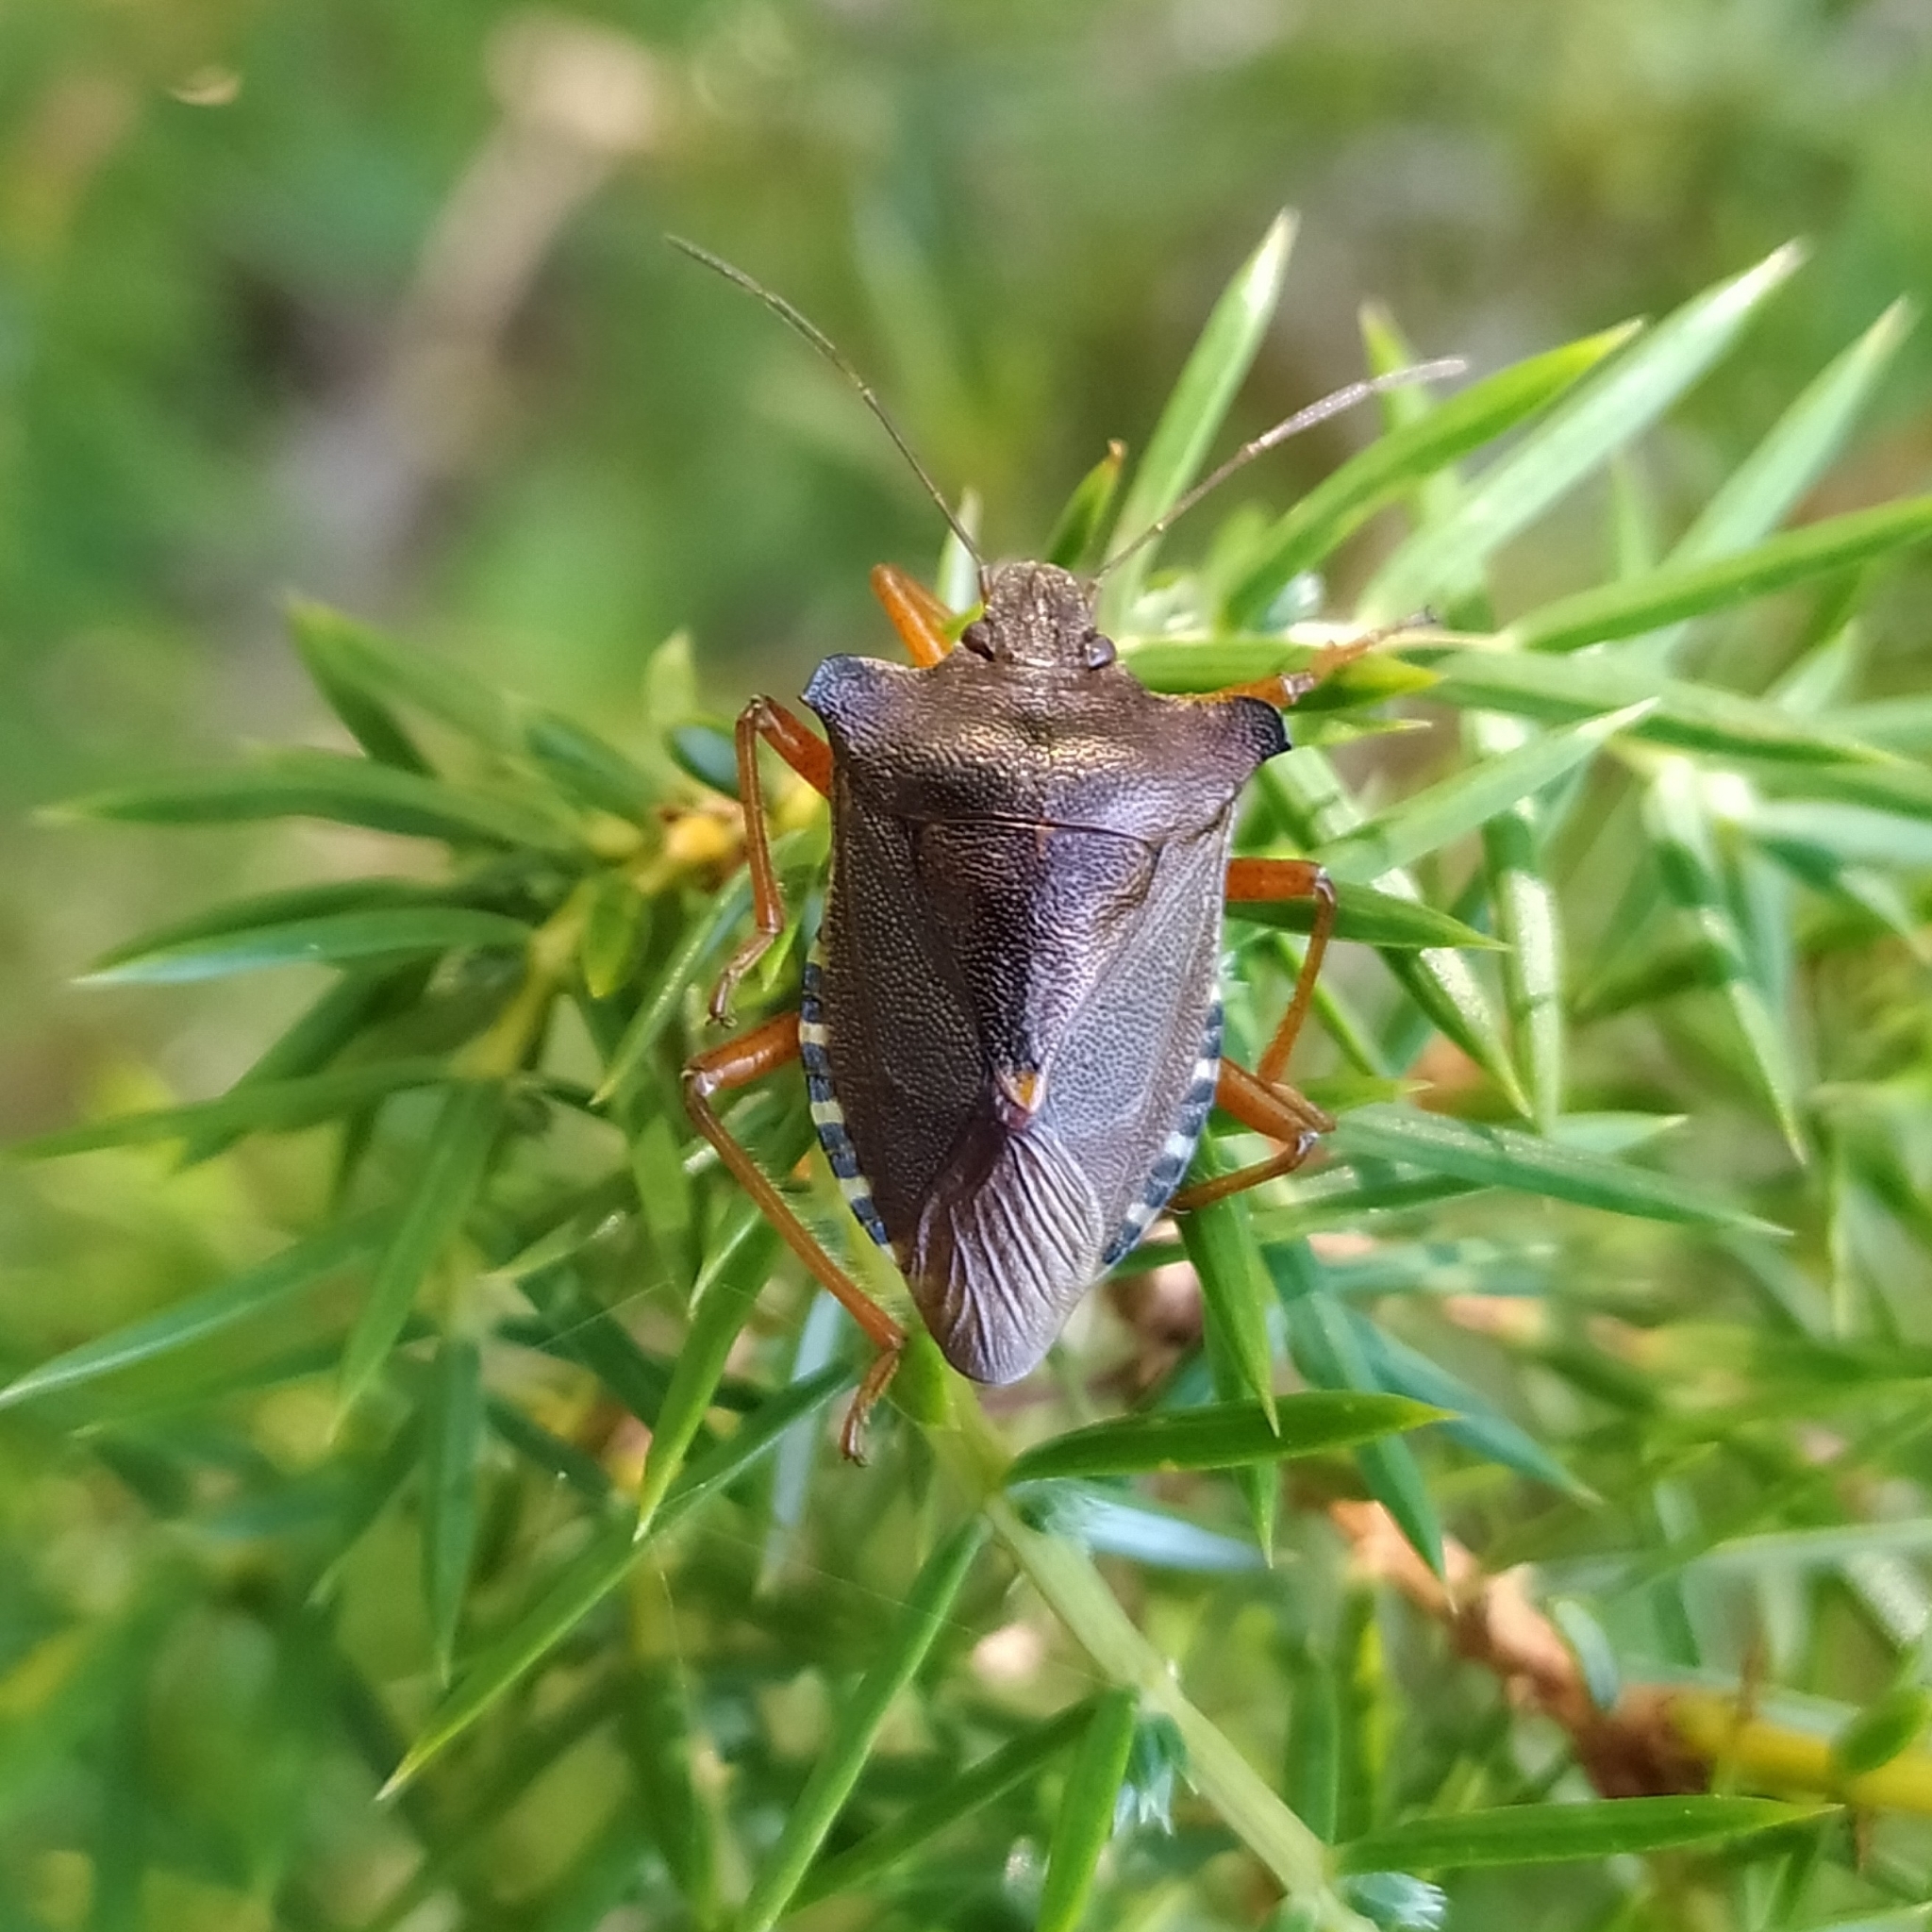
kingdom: Animalia
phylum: Arthropoda
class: Insecta
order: Hemiptera
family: Pentatomidae
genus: Pentatoma
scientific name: Pentatoma rufipes
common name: Forest bug
